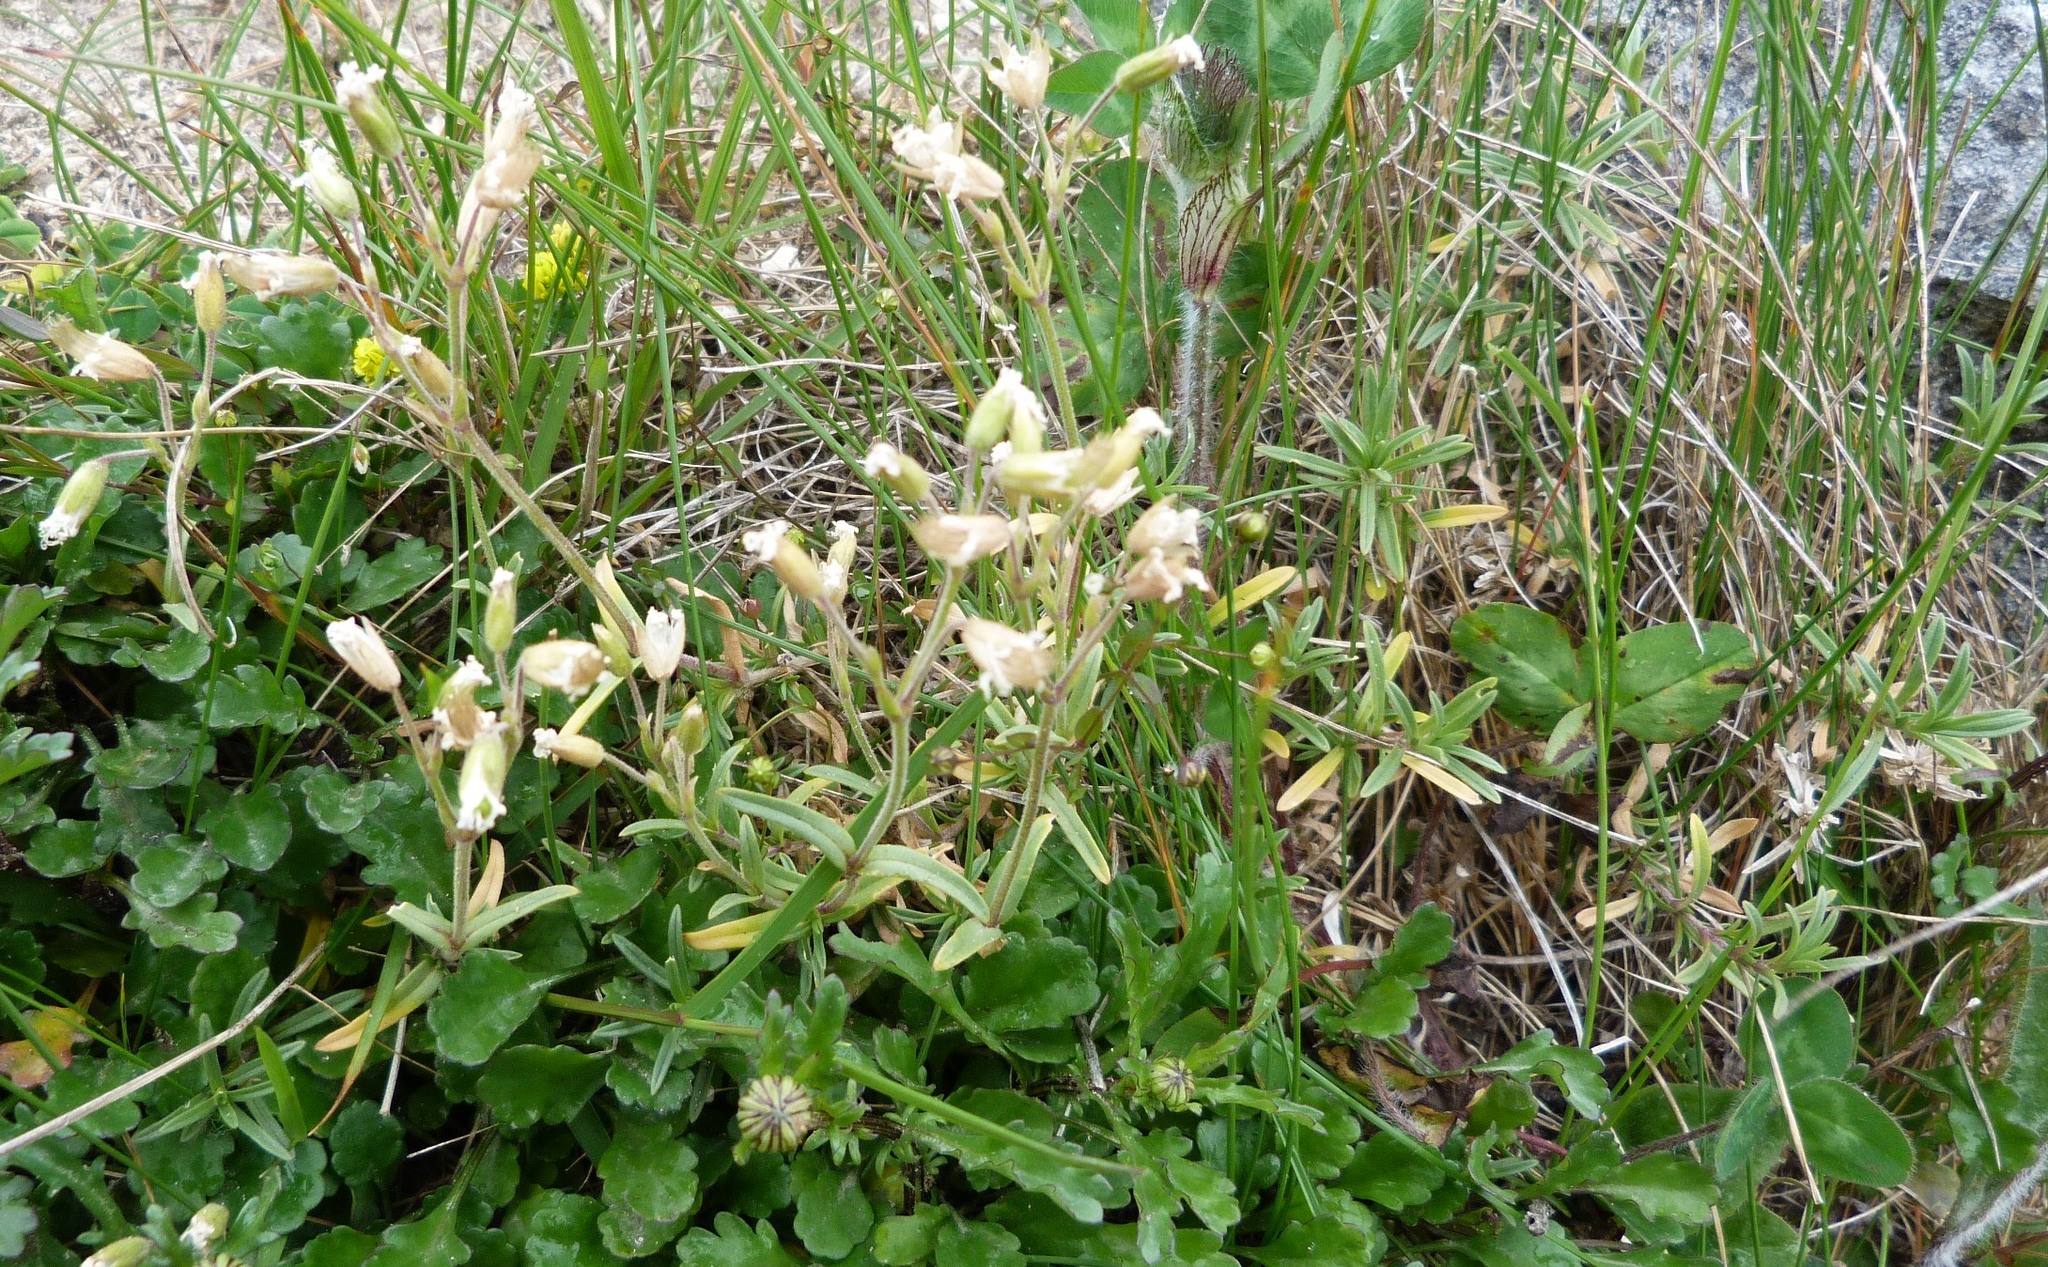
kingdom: Plantae
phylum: Tracheophyta
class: Magnoliopsida
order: Caryophyllales
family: Caryophyllaceae
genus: Cerastium
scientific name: Cerastium arvense
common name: Field mouse-ear
